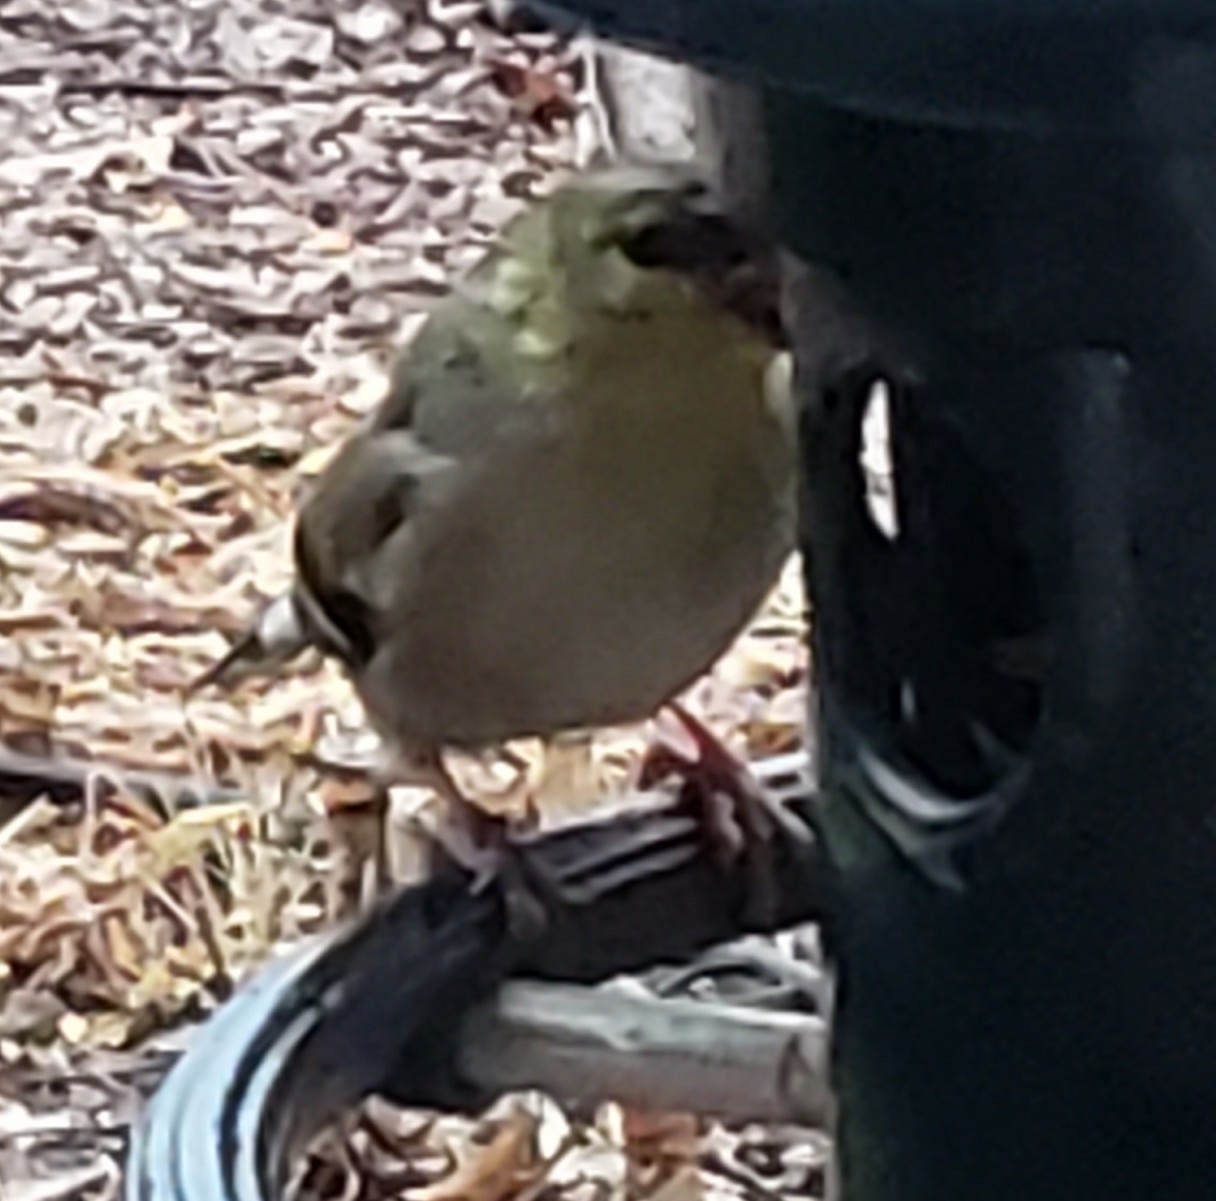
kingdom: Animalia
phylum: Chordata
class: Aves
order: Passeriformes
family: Fringillidae
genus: Spinus
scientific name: Spinus tristis
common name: American goldfinch
